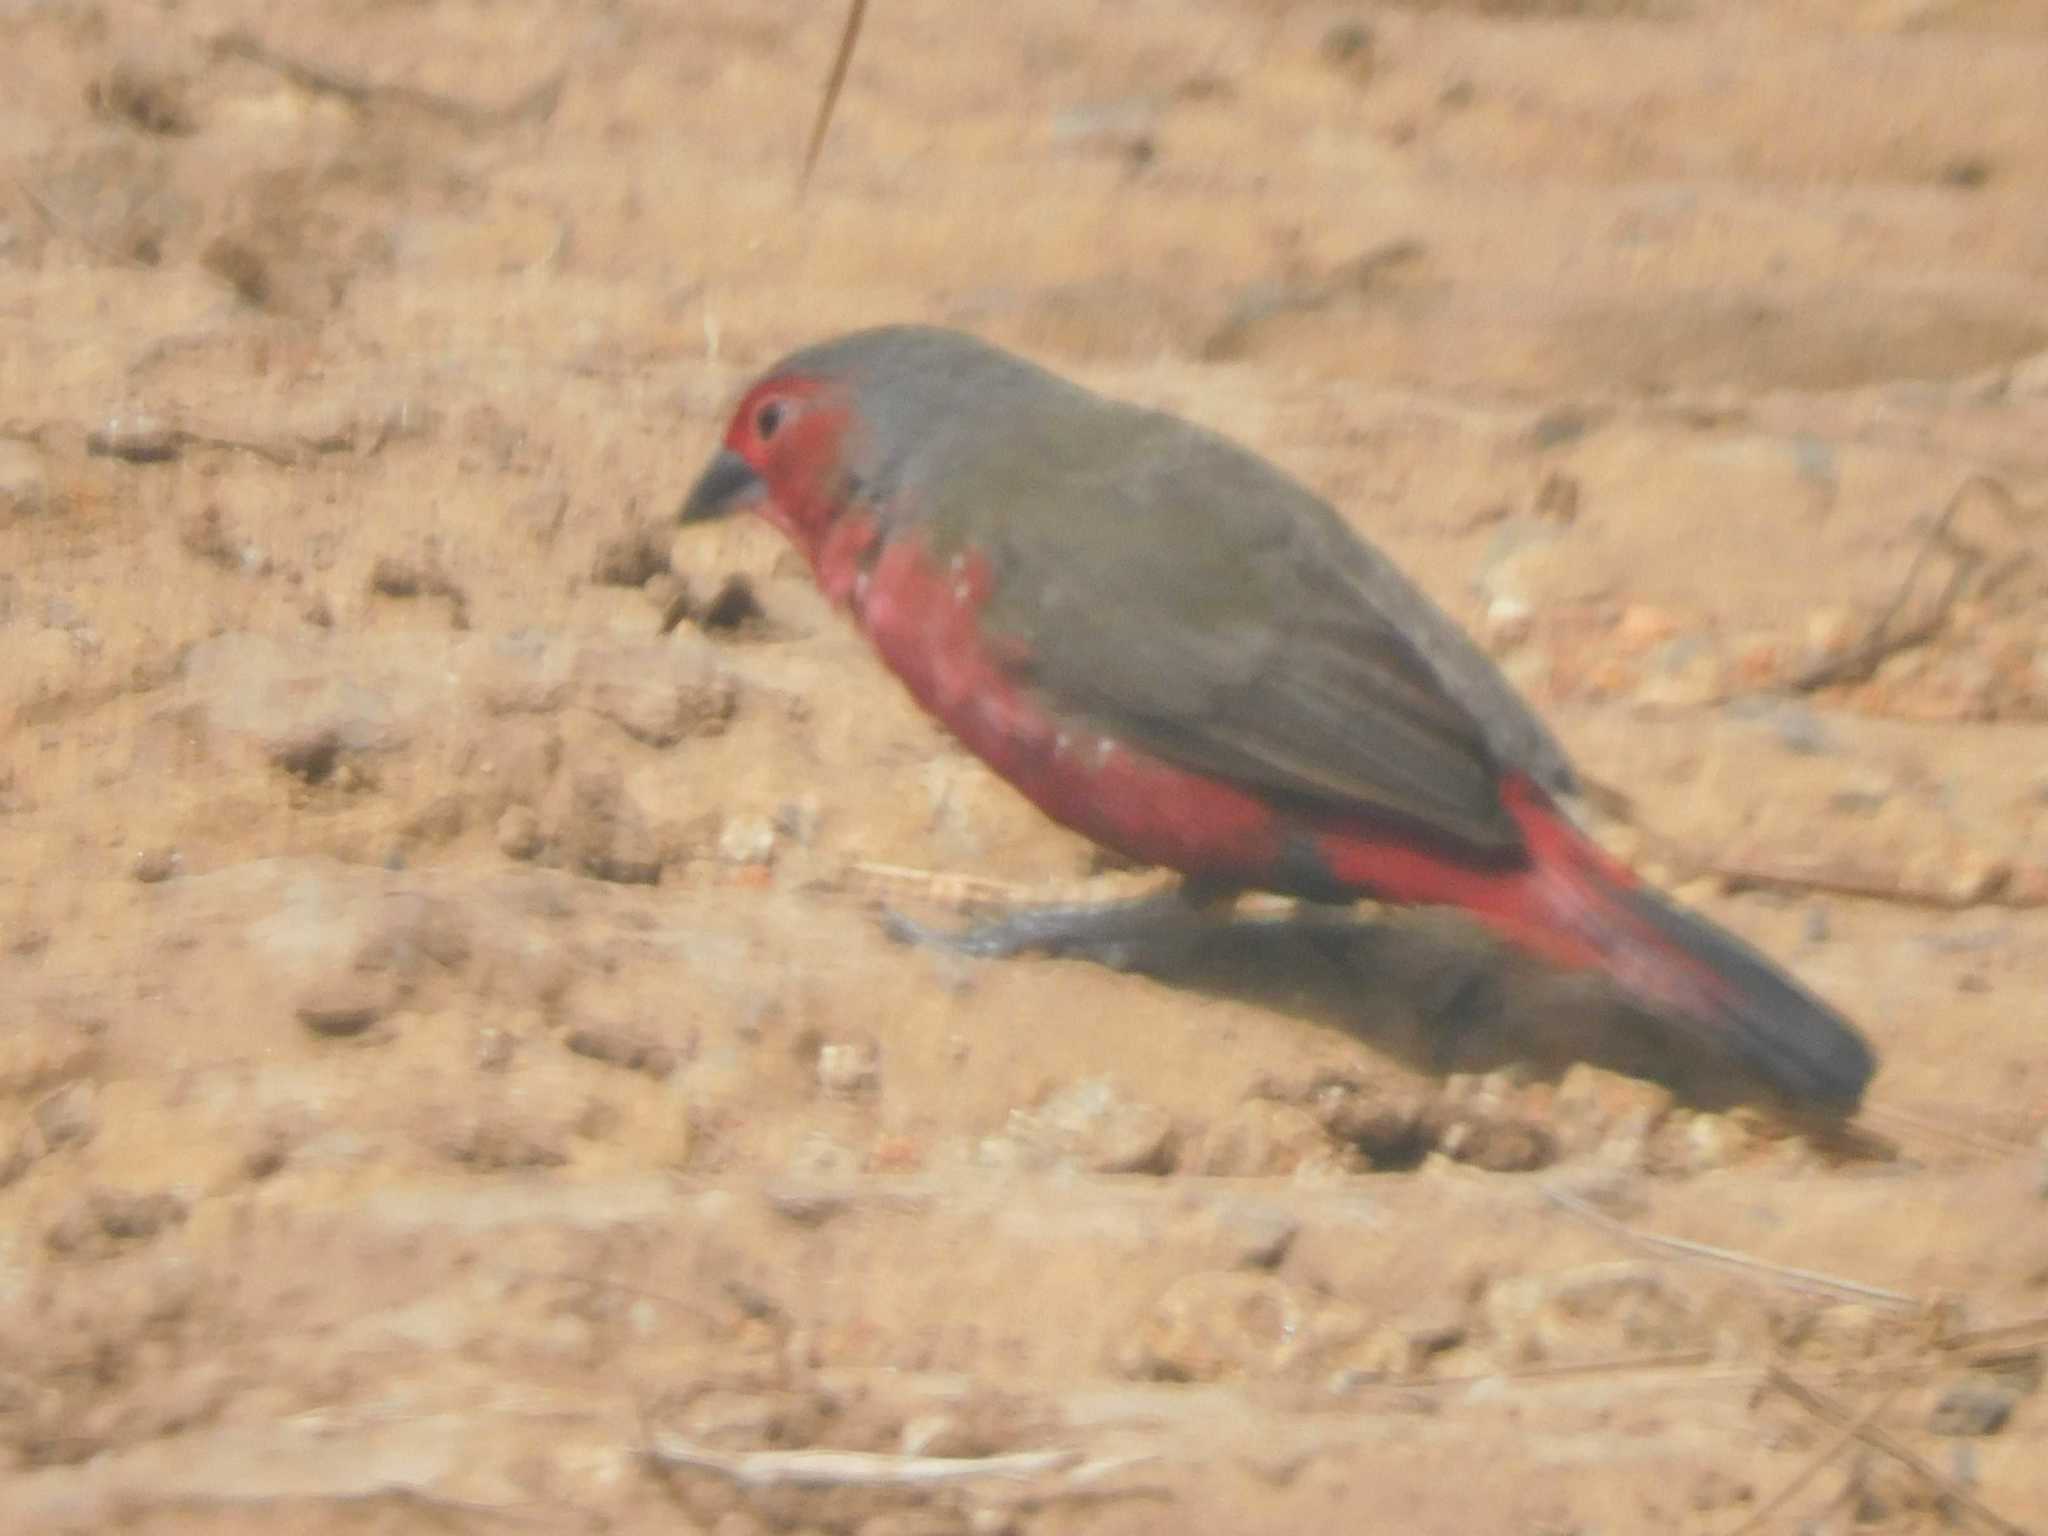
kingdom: Animalia
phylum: Chordata
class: Aves
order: Passeriformes
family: Estrildidae
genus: Lagonosticta
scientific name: Lagonosticta rubricata
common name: African firefinch
